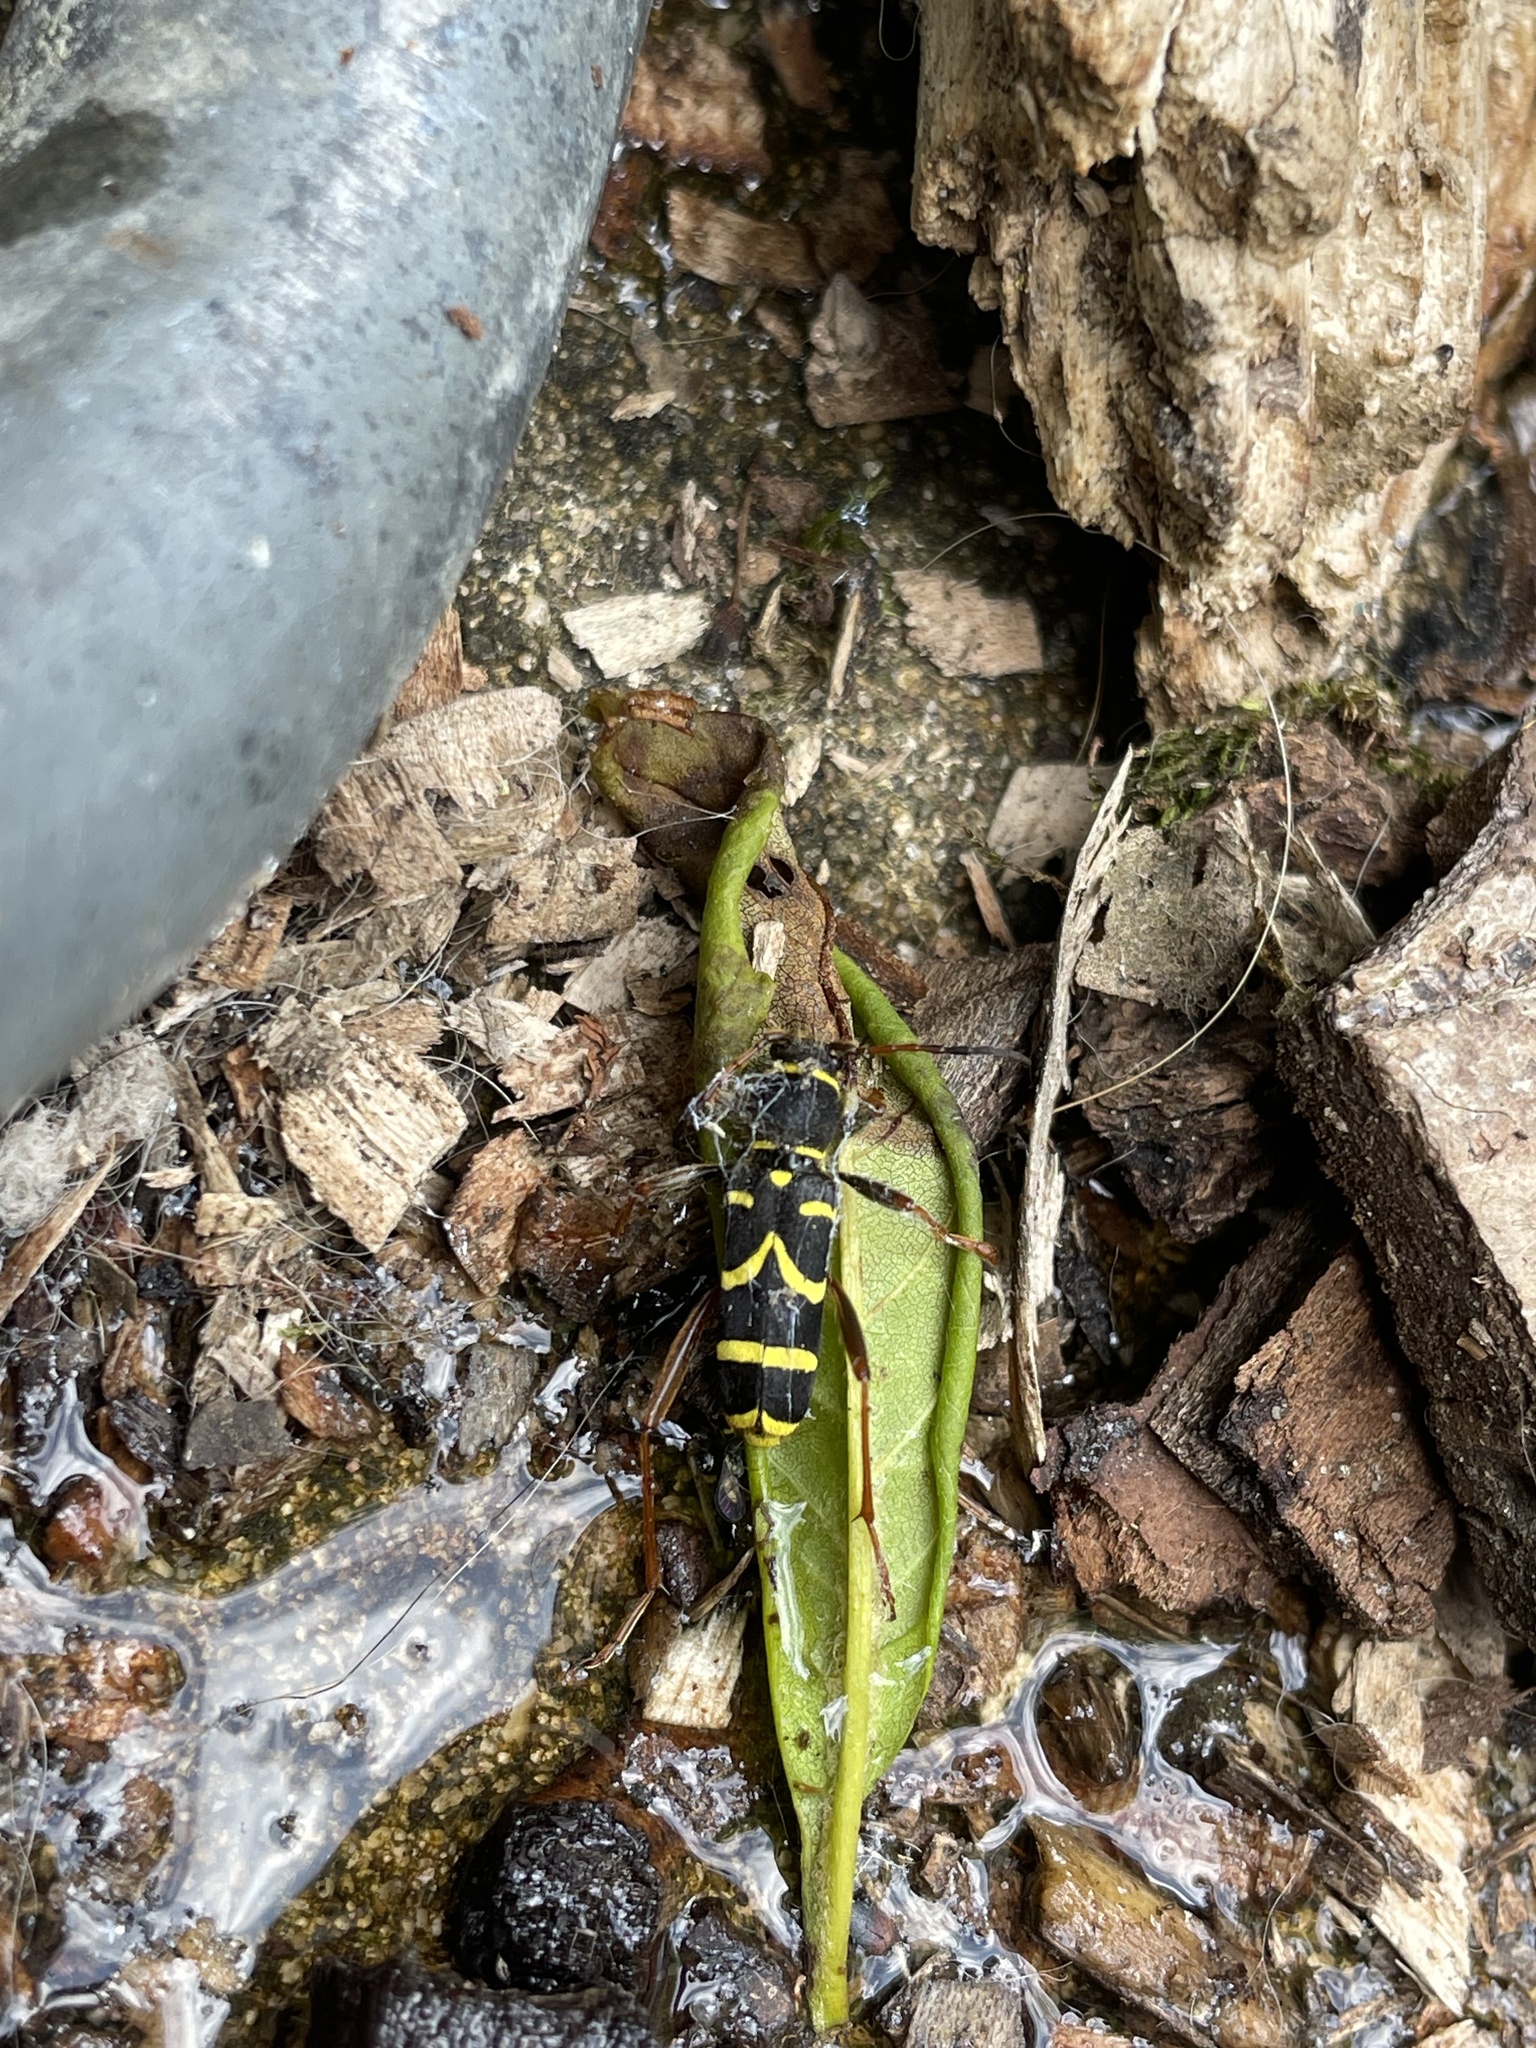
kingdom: Animalia
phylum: Arthropoda
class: Insecta
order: Coleoptera
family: Cerambycidae
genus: Clytus
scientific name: Clytus arietis
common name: Wasp beetle
